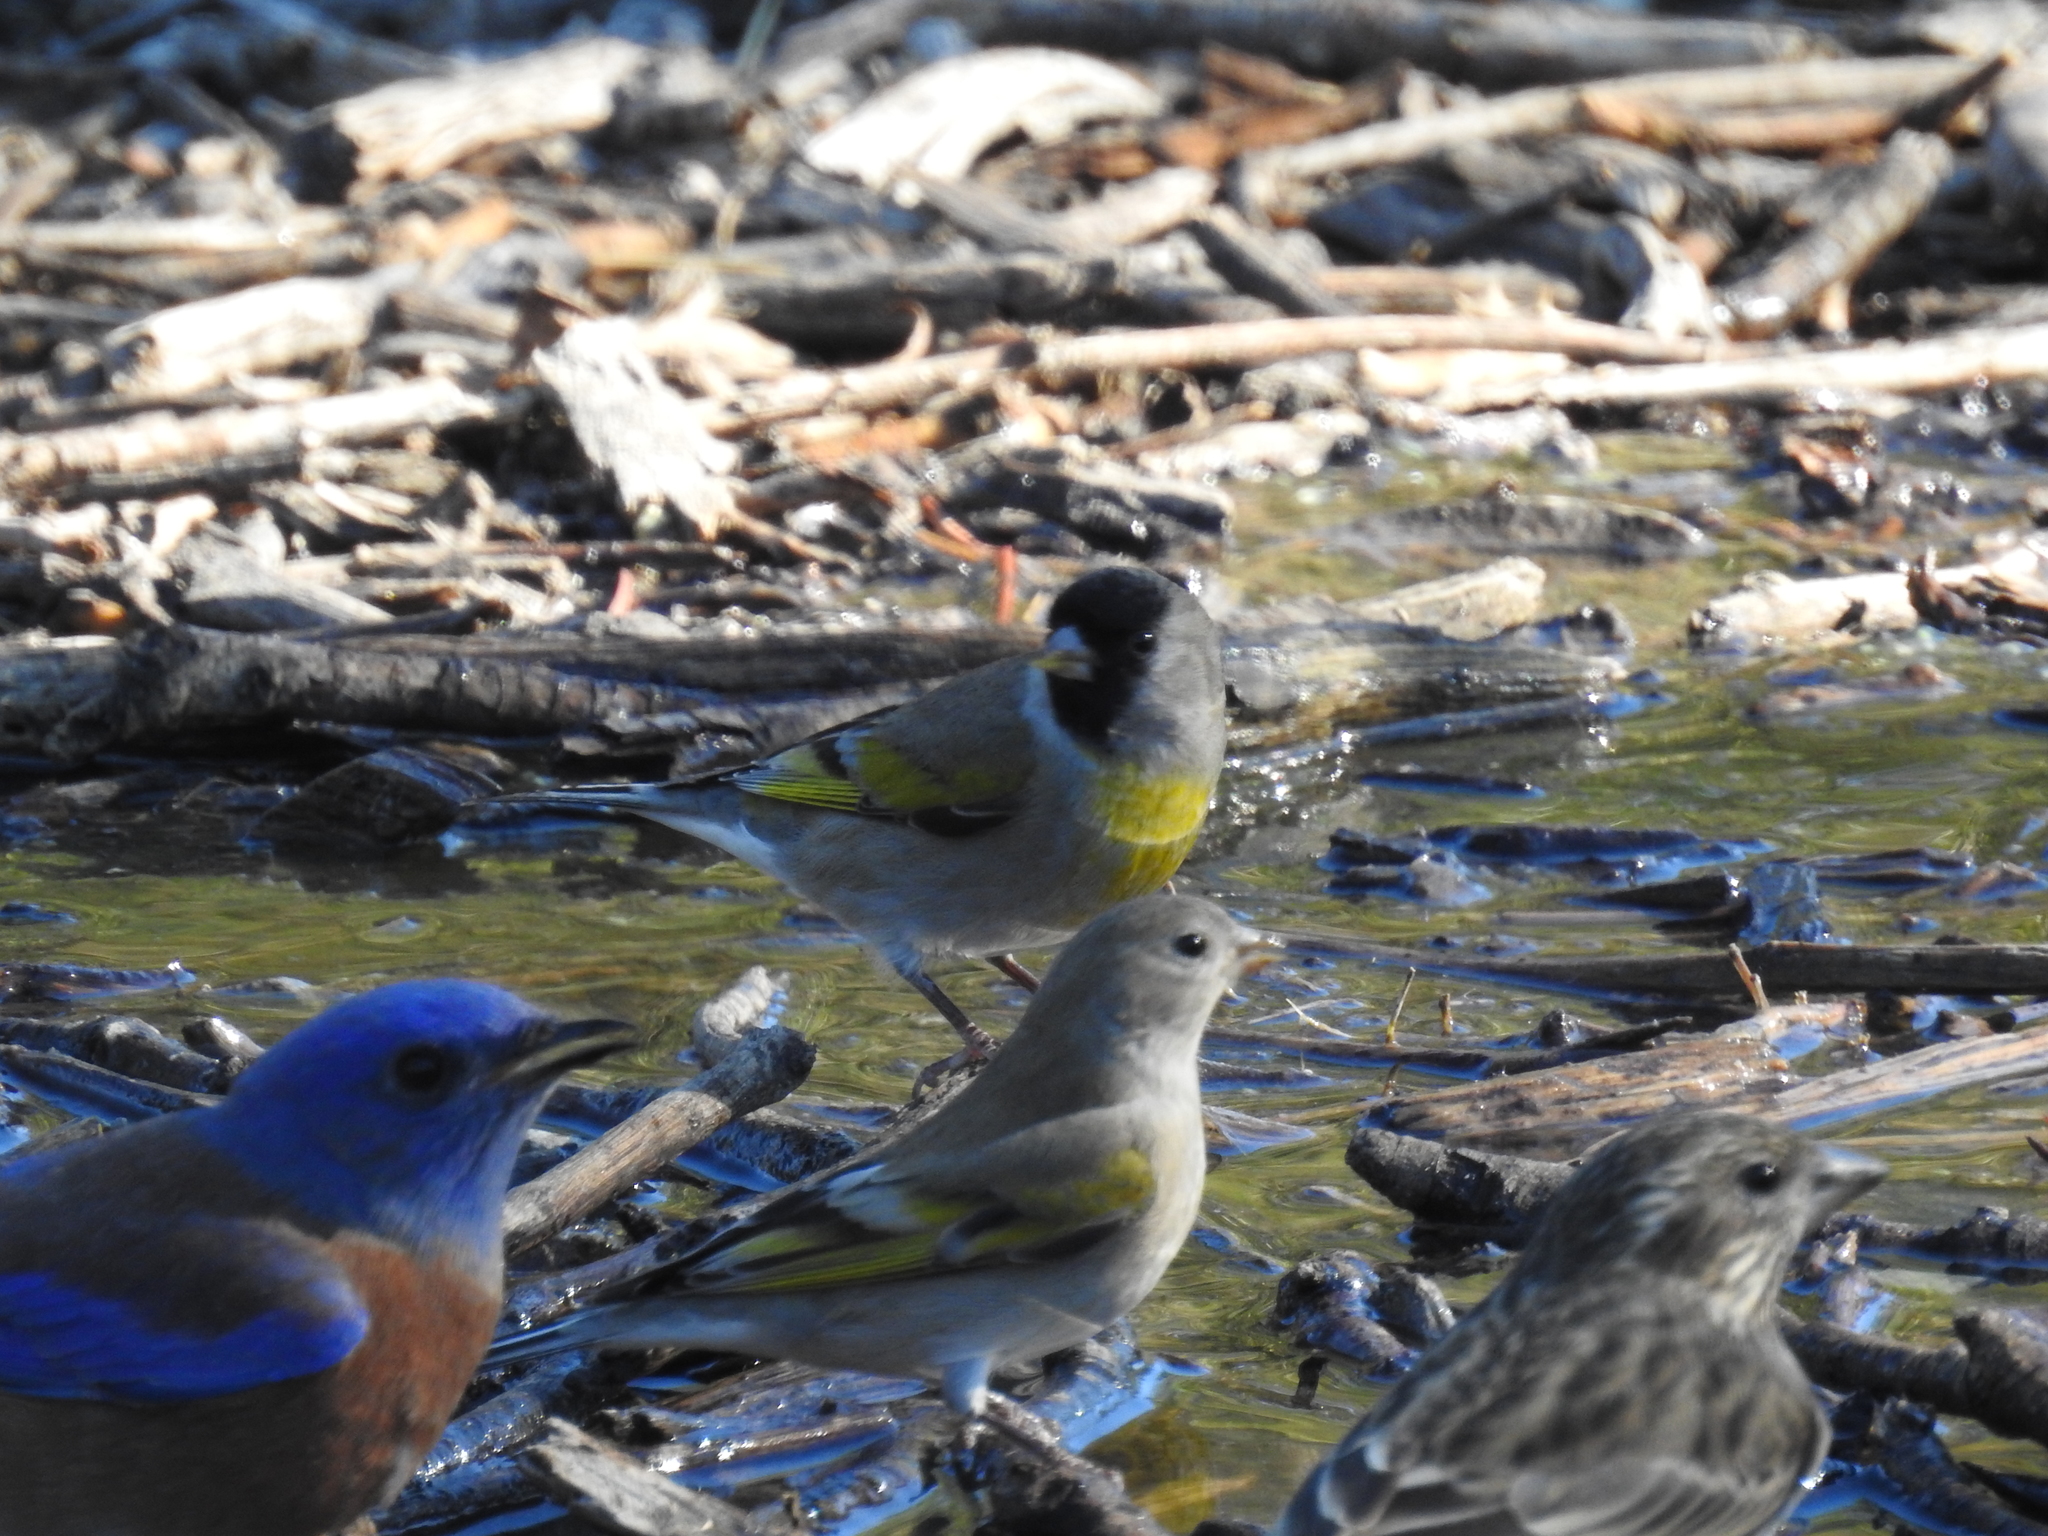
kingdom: Animalia
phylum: Chordata
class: Aves
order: Passeriformes
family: Fringillidae
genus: Spinus
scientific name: Spinus lawrencei
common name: Lawrence's goldfinch
